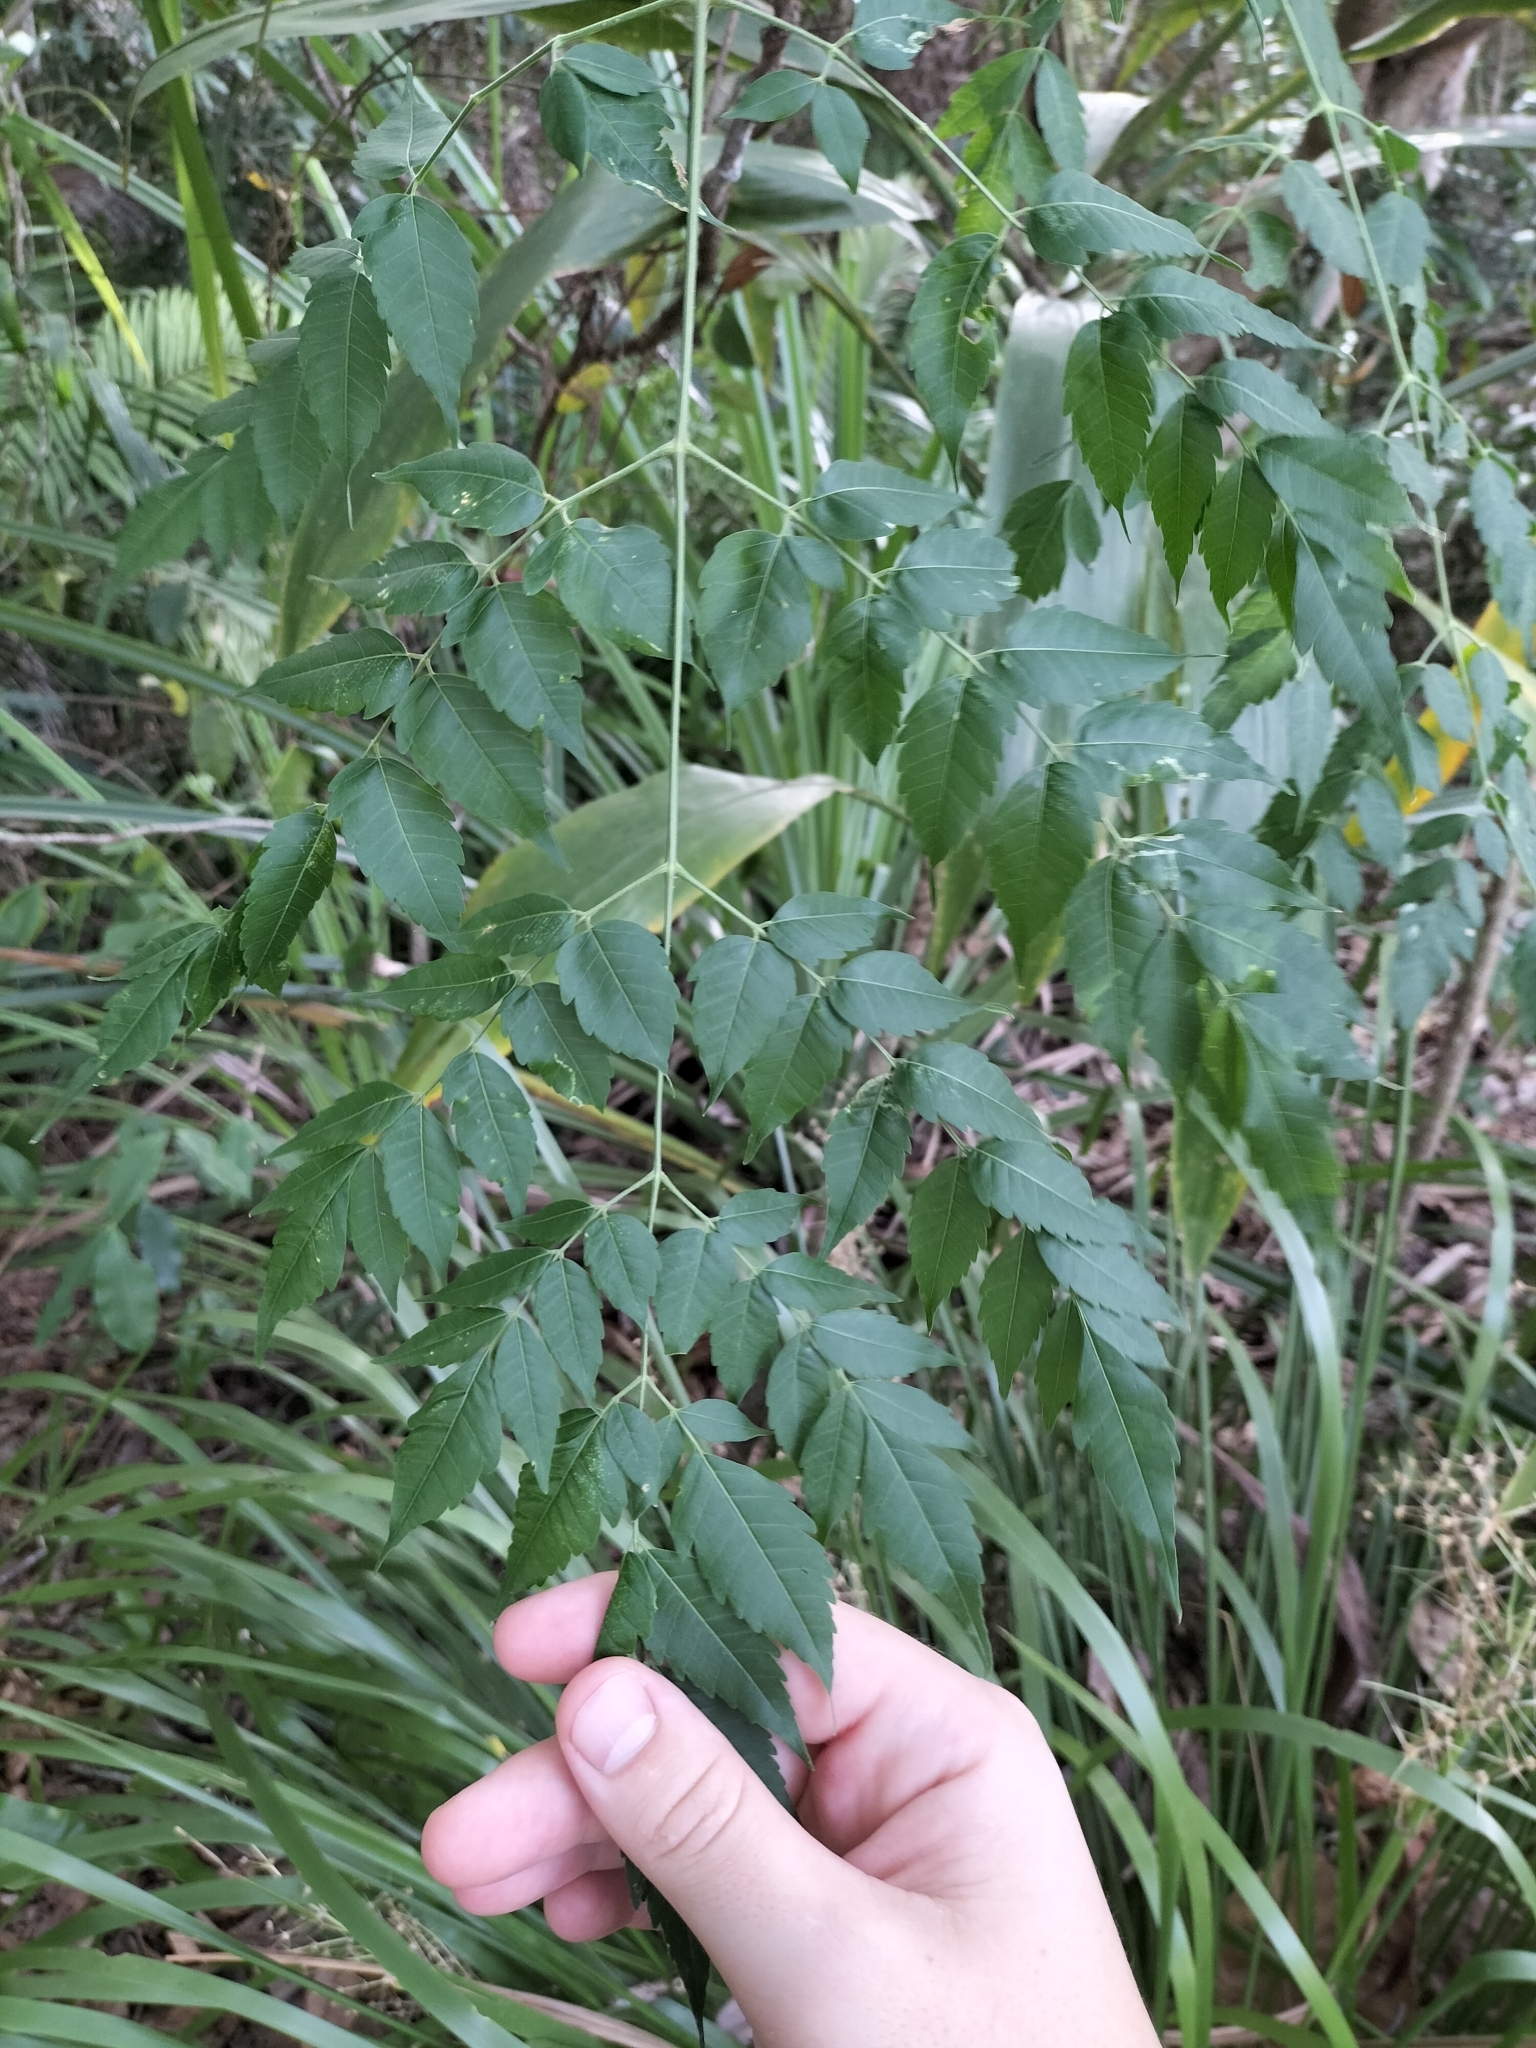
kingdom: Plantae
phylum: Tracheophyta
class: Magnoliopsida
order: Sapindales
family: Meliaceae
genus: Melia
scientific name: Melia azedarach
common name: Chinaberrytree
